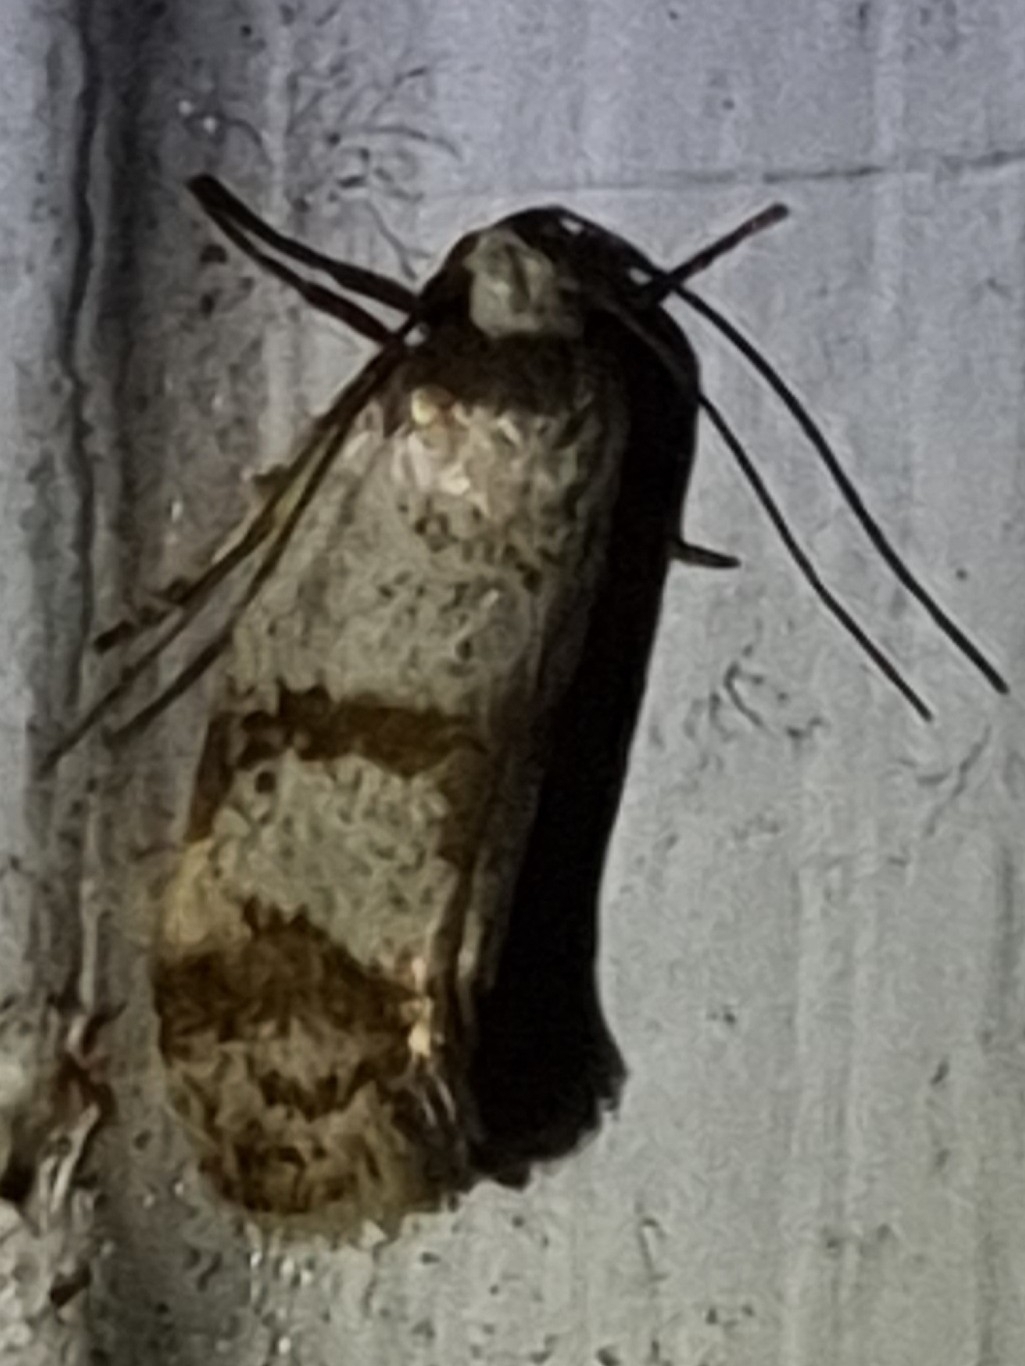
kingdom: Animalia
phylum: Arthropoda
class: Insecta
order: Lepidoptera
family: Oecophoridae
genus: Philobota
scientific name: Philobota curvilinea
